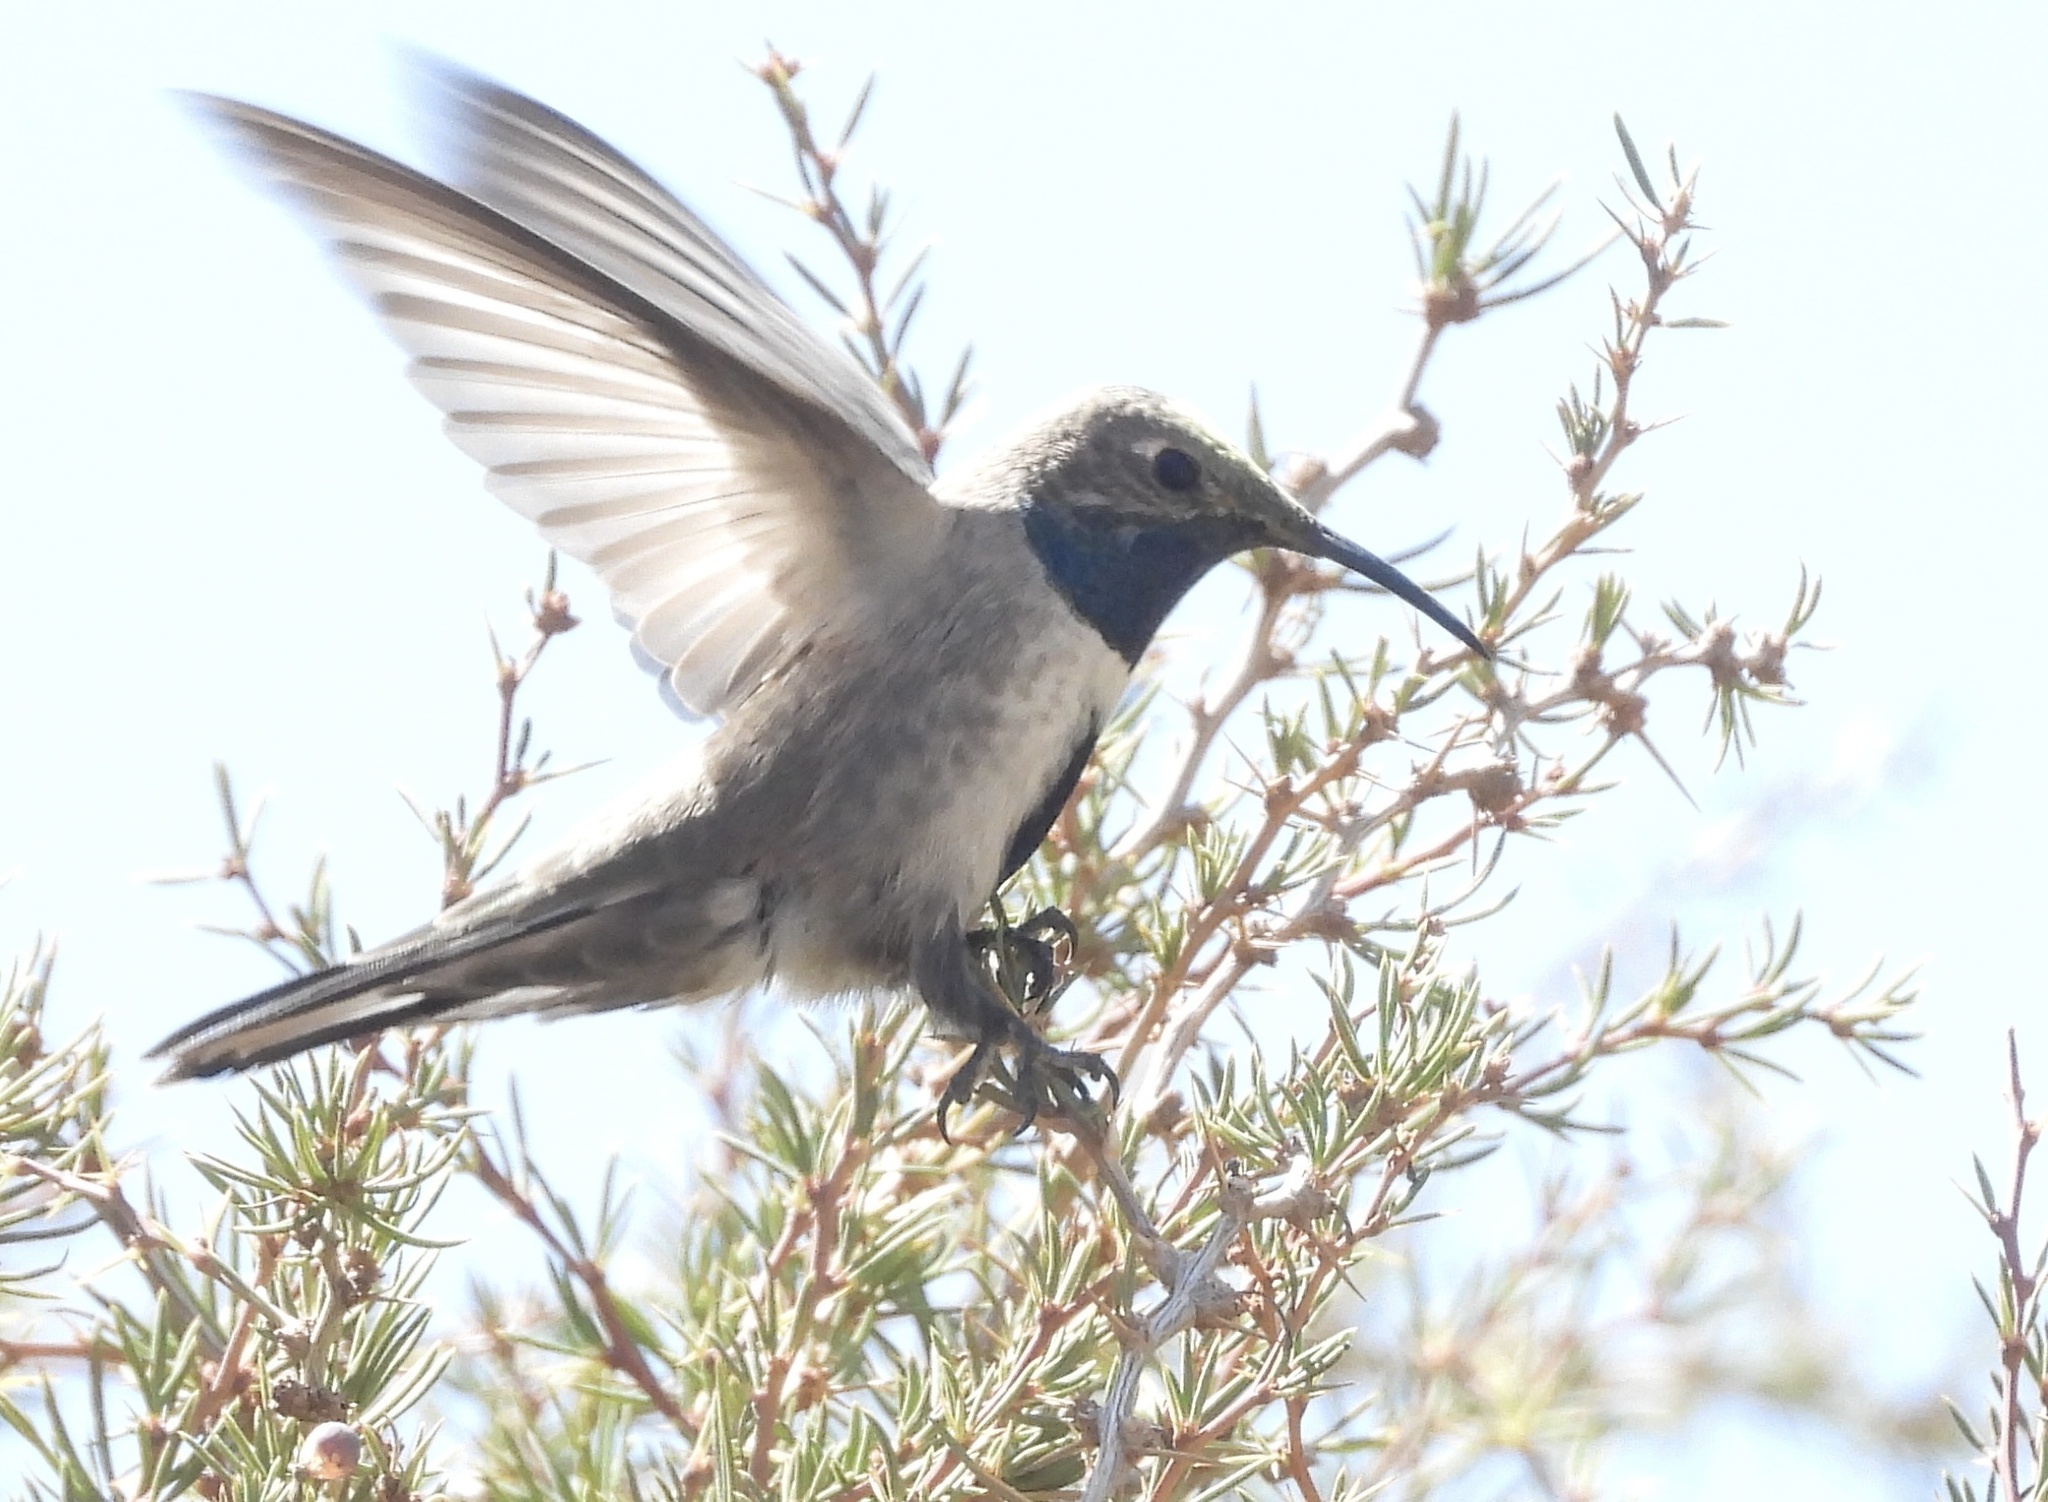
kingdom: Animalia
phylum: Chordata
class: Aves
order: Apodiformes
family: Trochilidae
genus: Oreotrochilus
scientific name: Oreotrochilus leucopleurus
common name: White-sided hillstar
